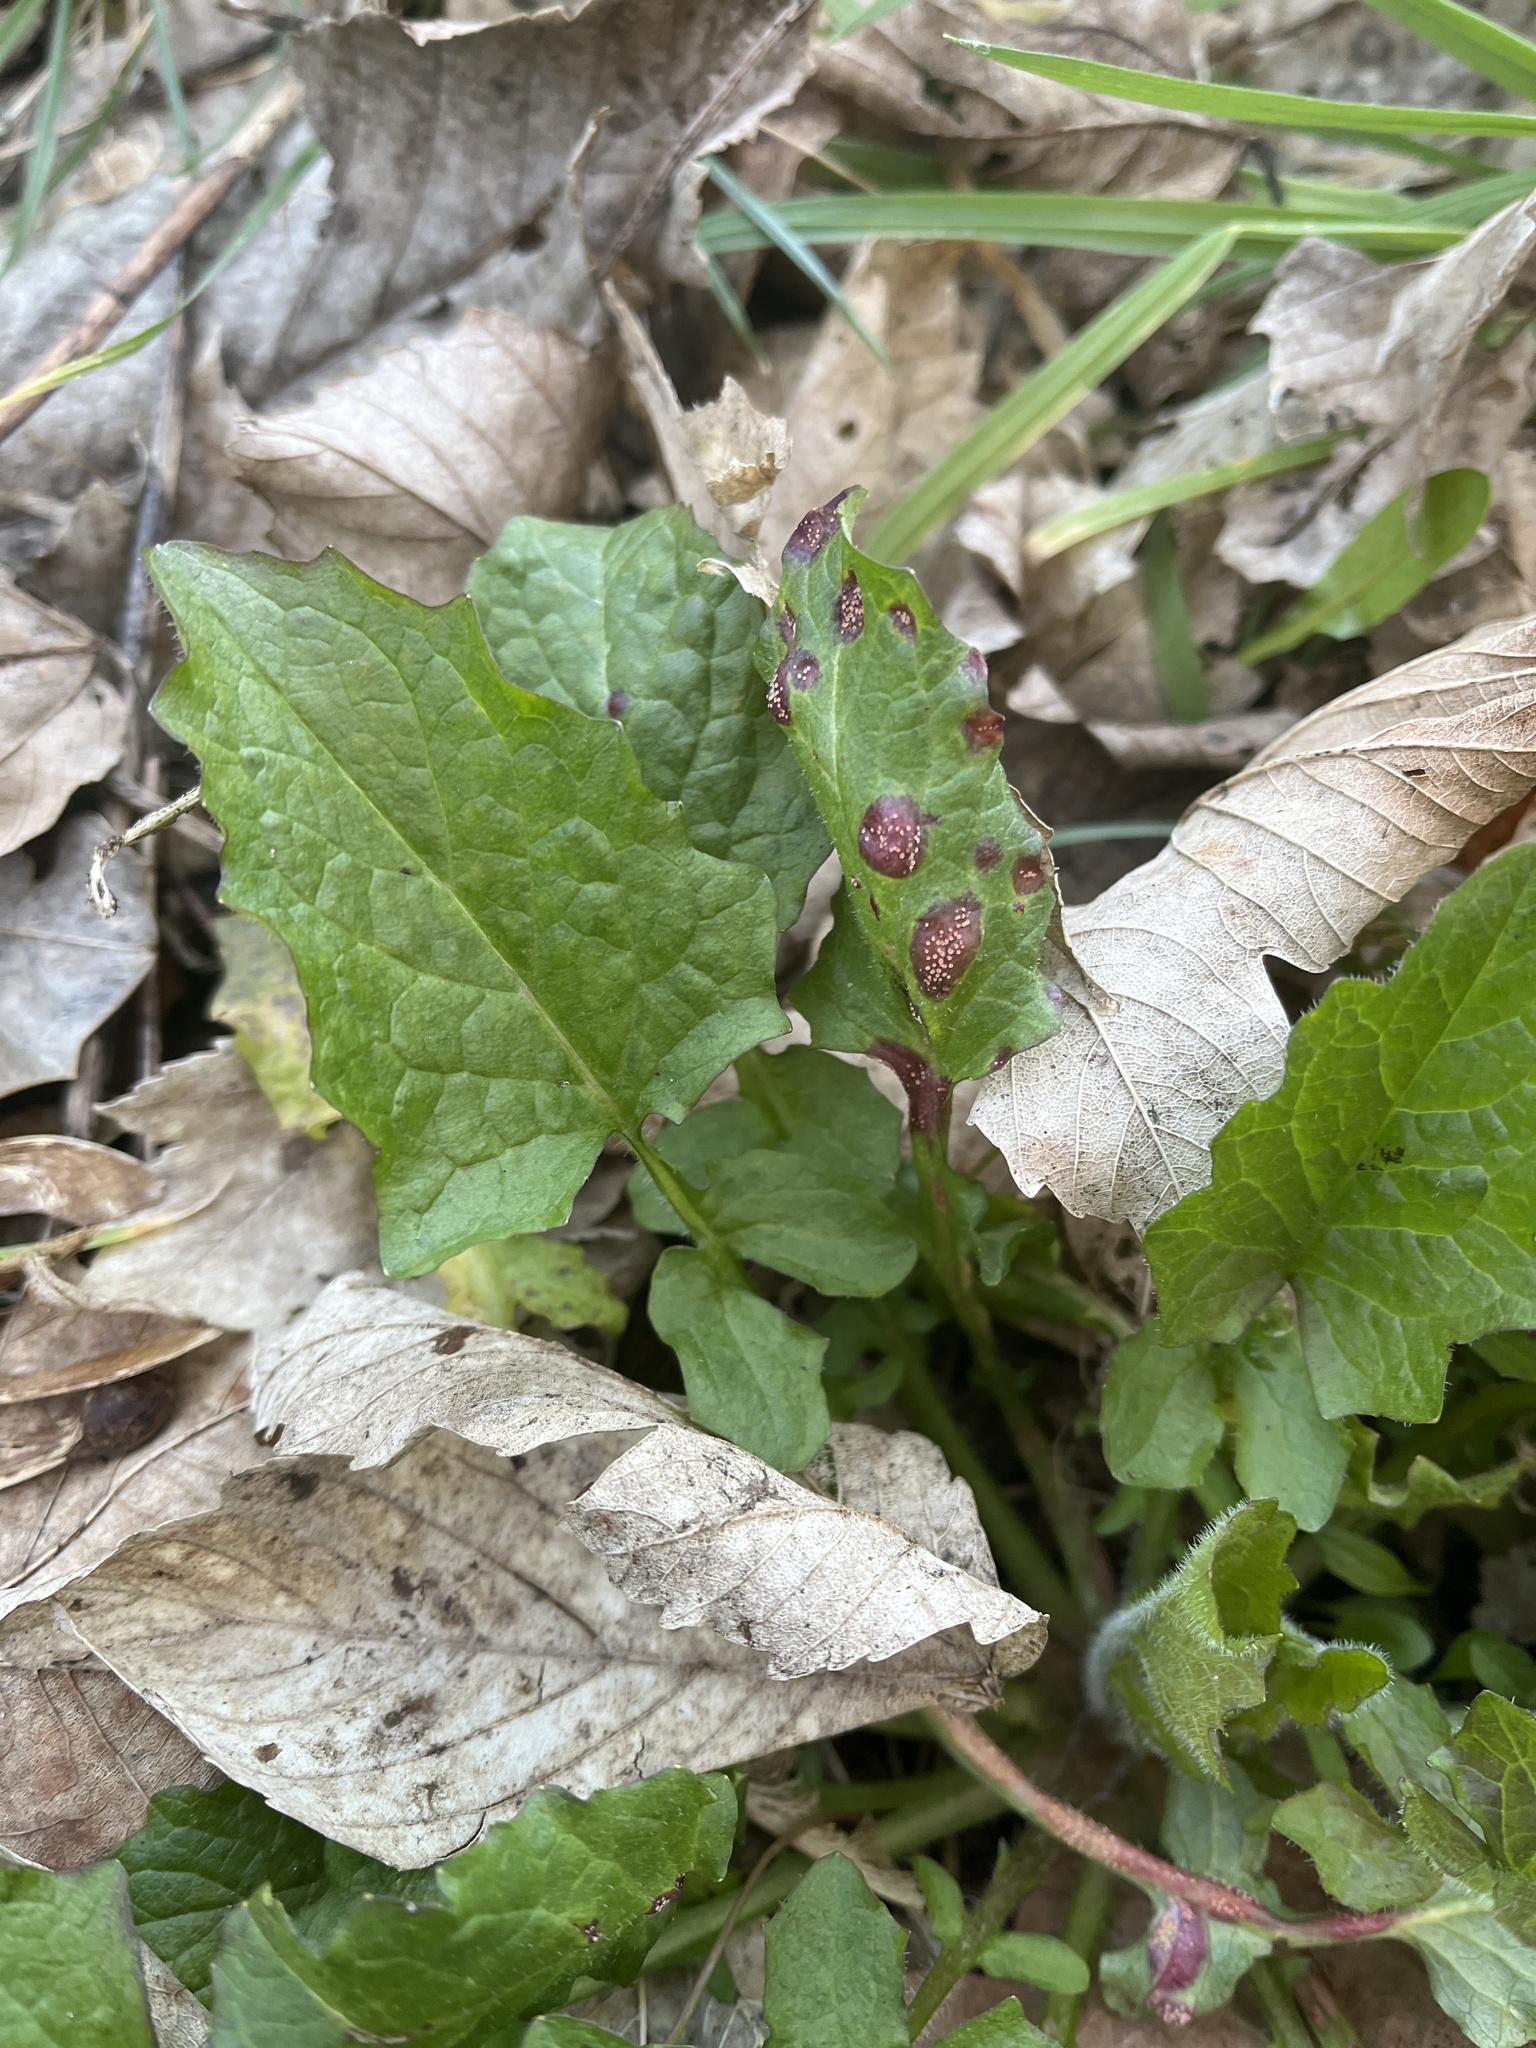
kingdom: Fungi
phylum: Basidiomycota
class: Pucciniomycetes
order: Pucciniales
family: Pucciniaceae
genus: Puccinia
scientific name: Puccinia lapsanae
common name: Nipplewort rust
